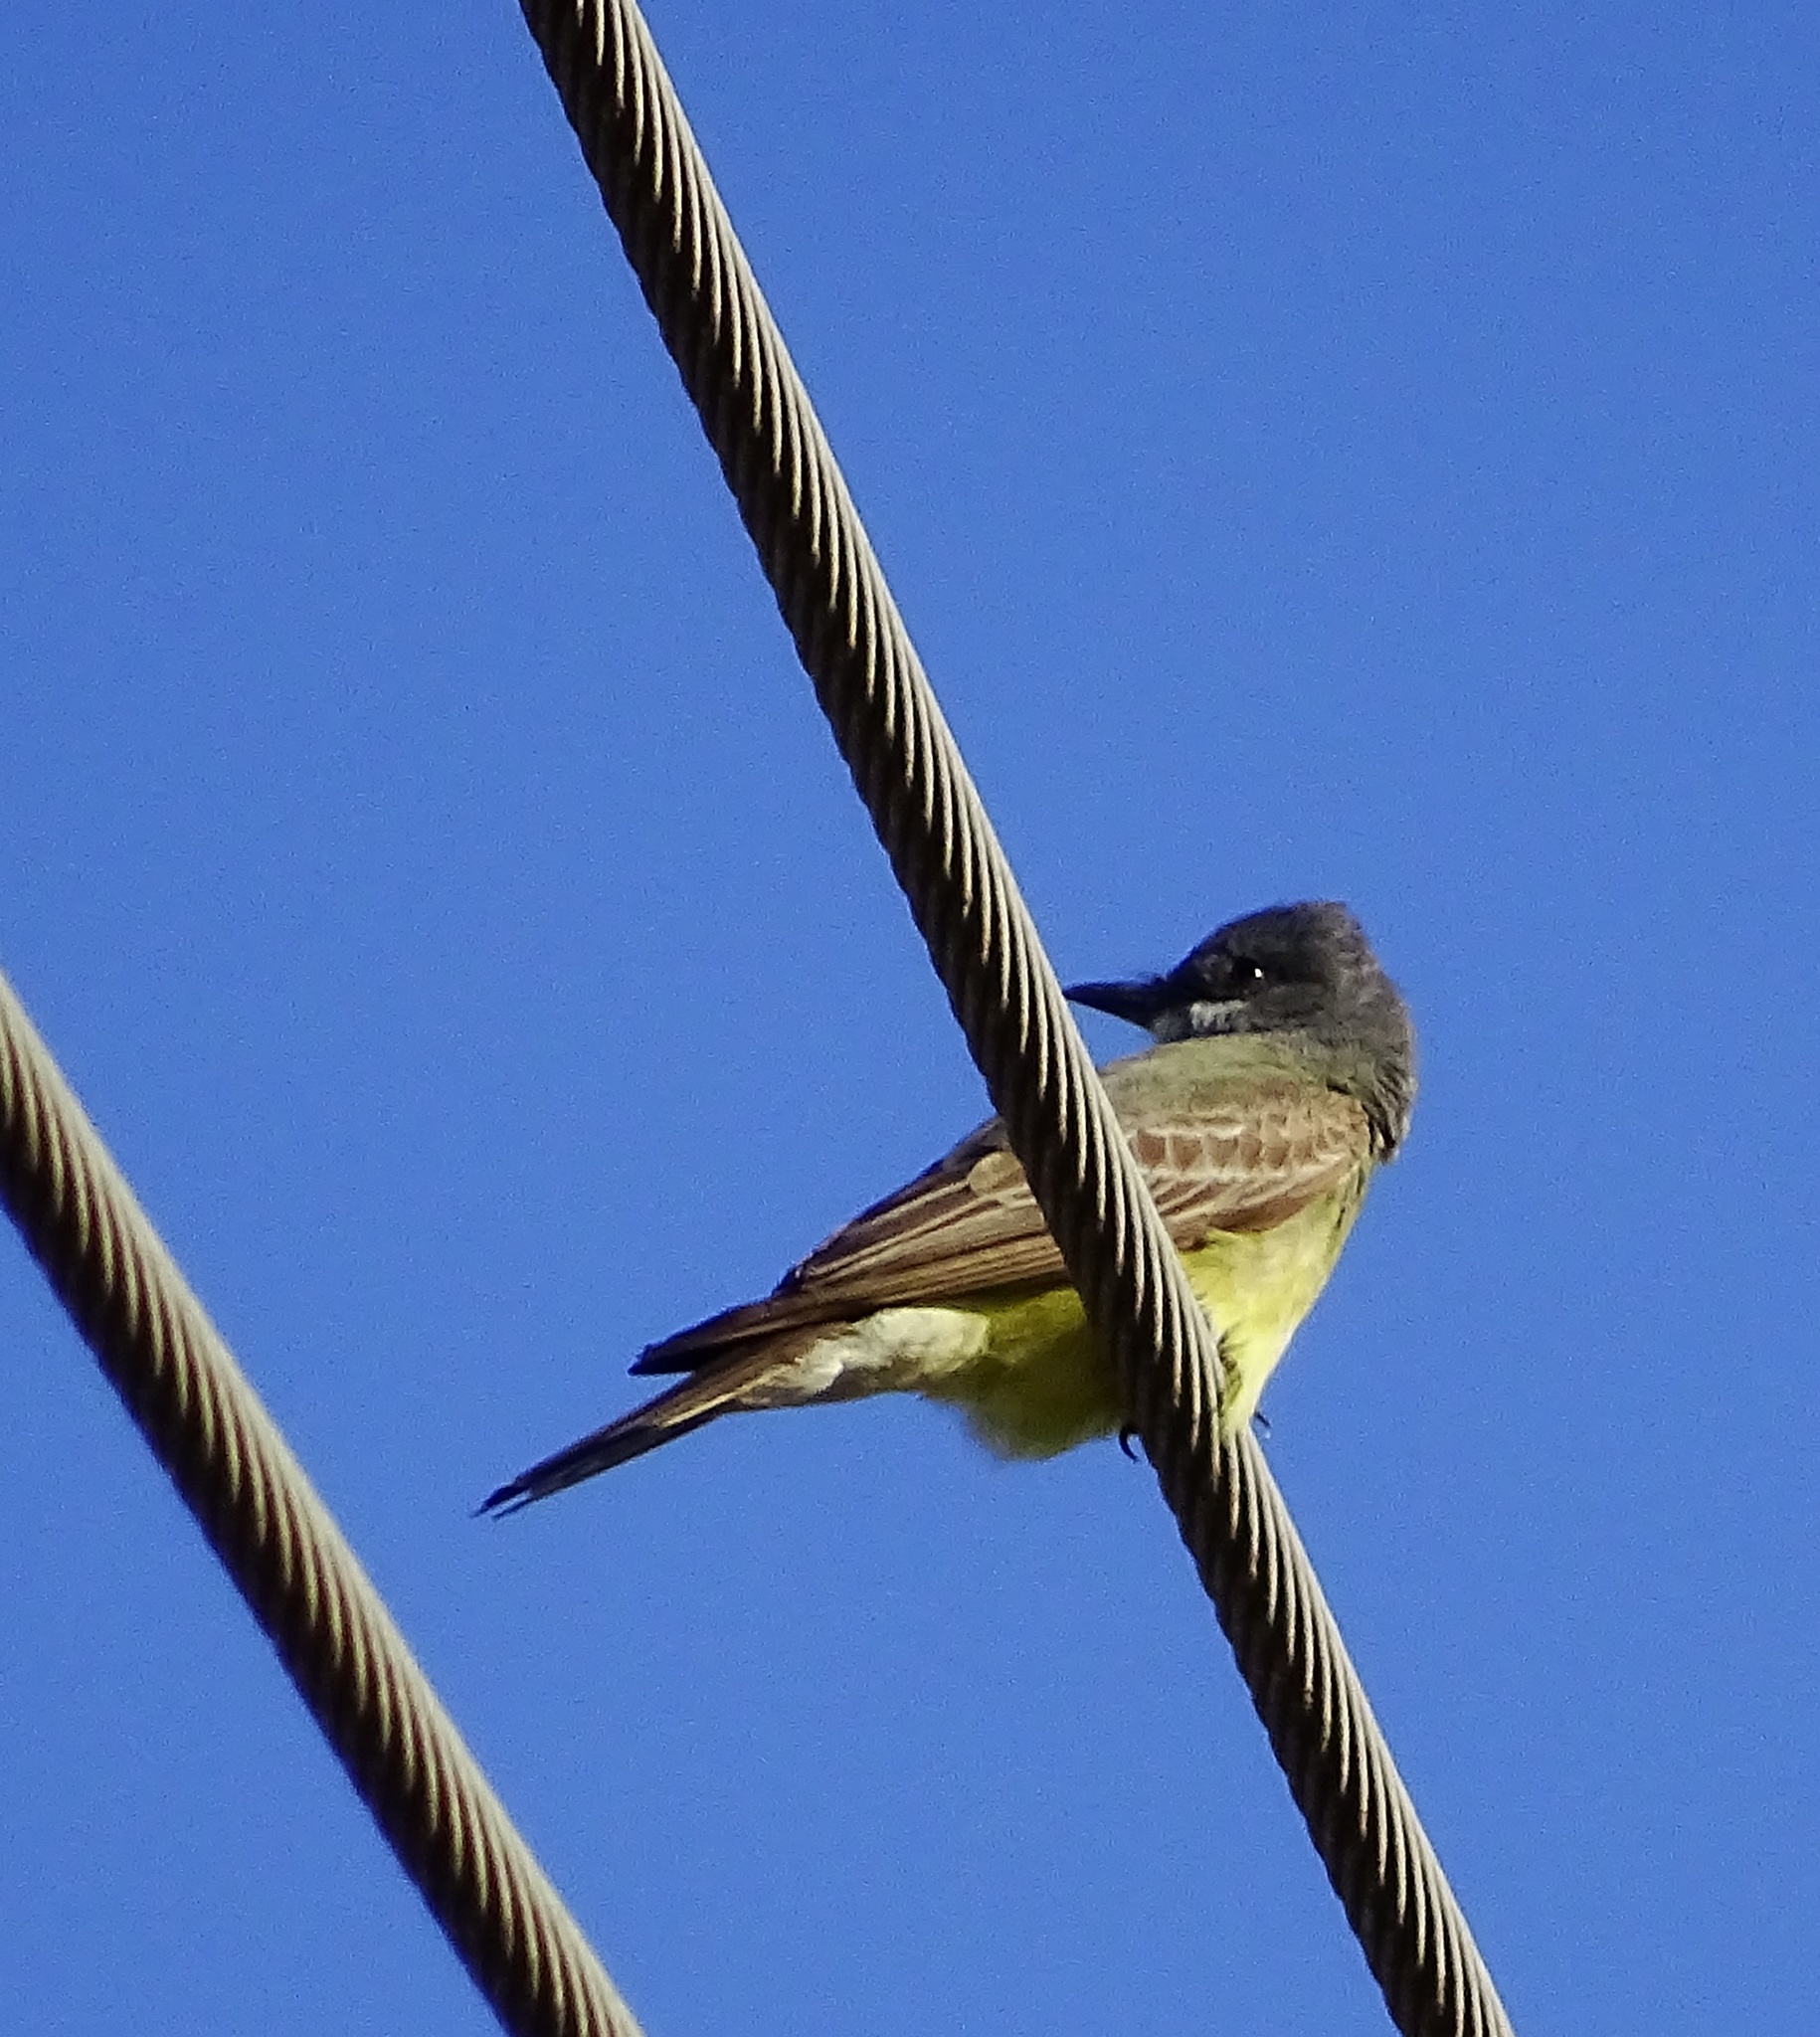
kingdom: Animalia
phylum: Chordata
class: Aves
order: Passeriformes
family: Tyrannidae
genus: Tyrannus
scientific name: Tyrannus vociferans
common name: Cassin's kingbird
